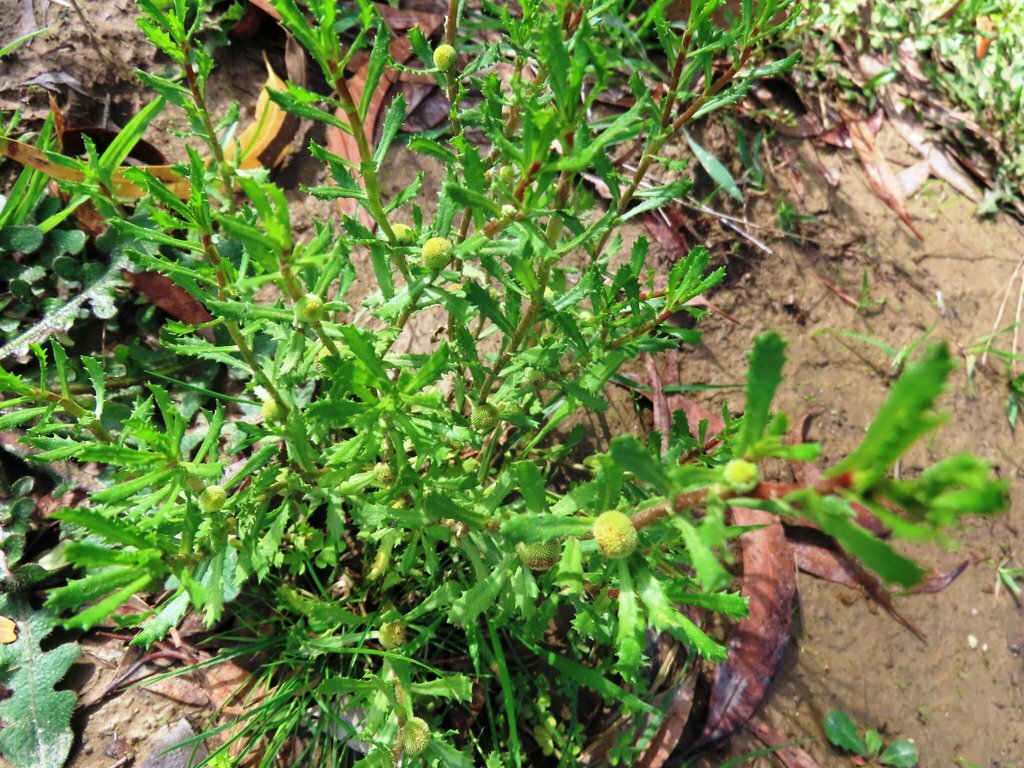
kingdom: Plantae
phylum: Tracheophyta
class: Magnoliopsida
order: Asterales
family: Asteraceae
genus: Centipeda
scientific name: Centipeda cunninghamii
